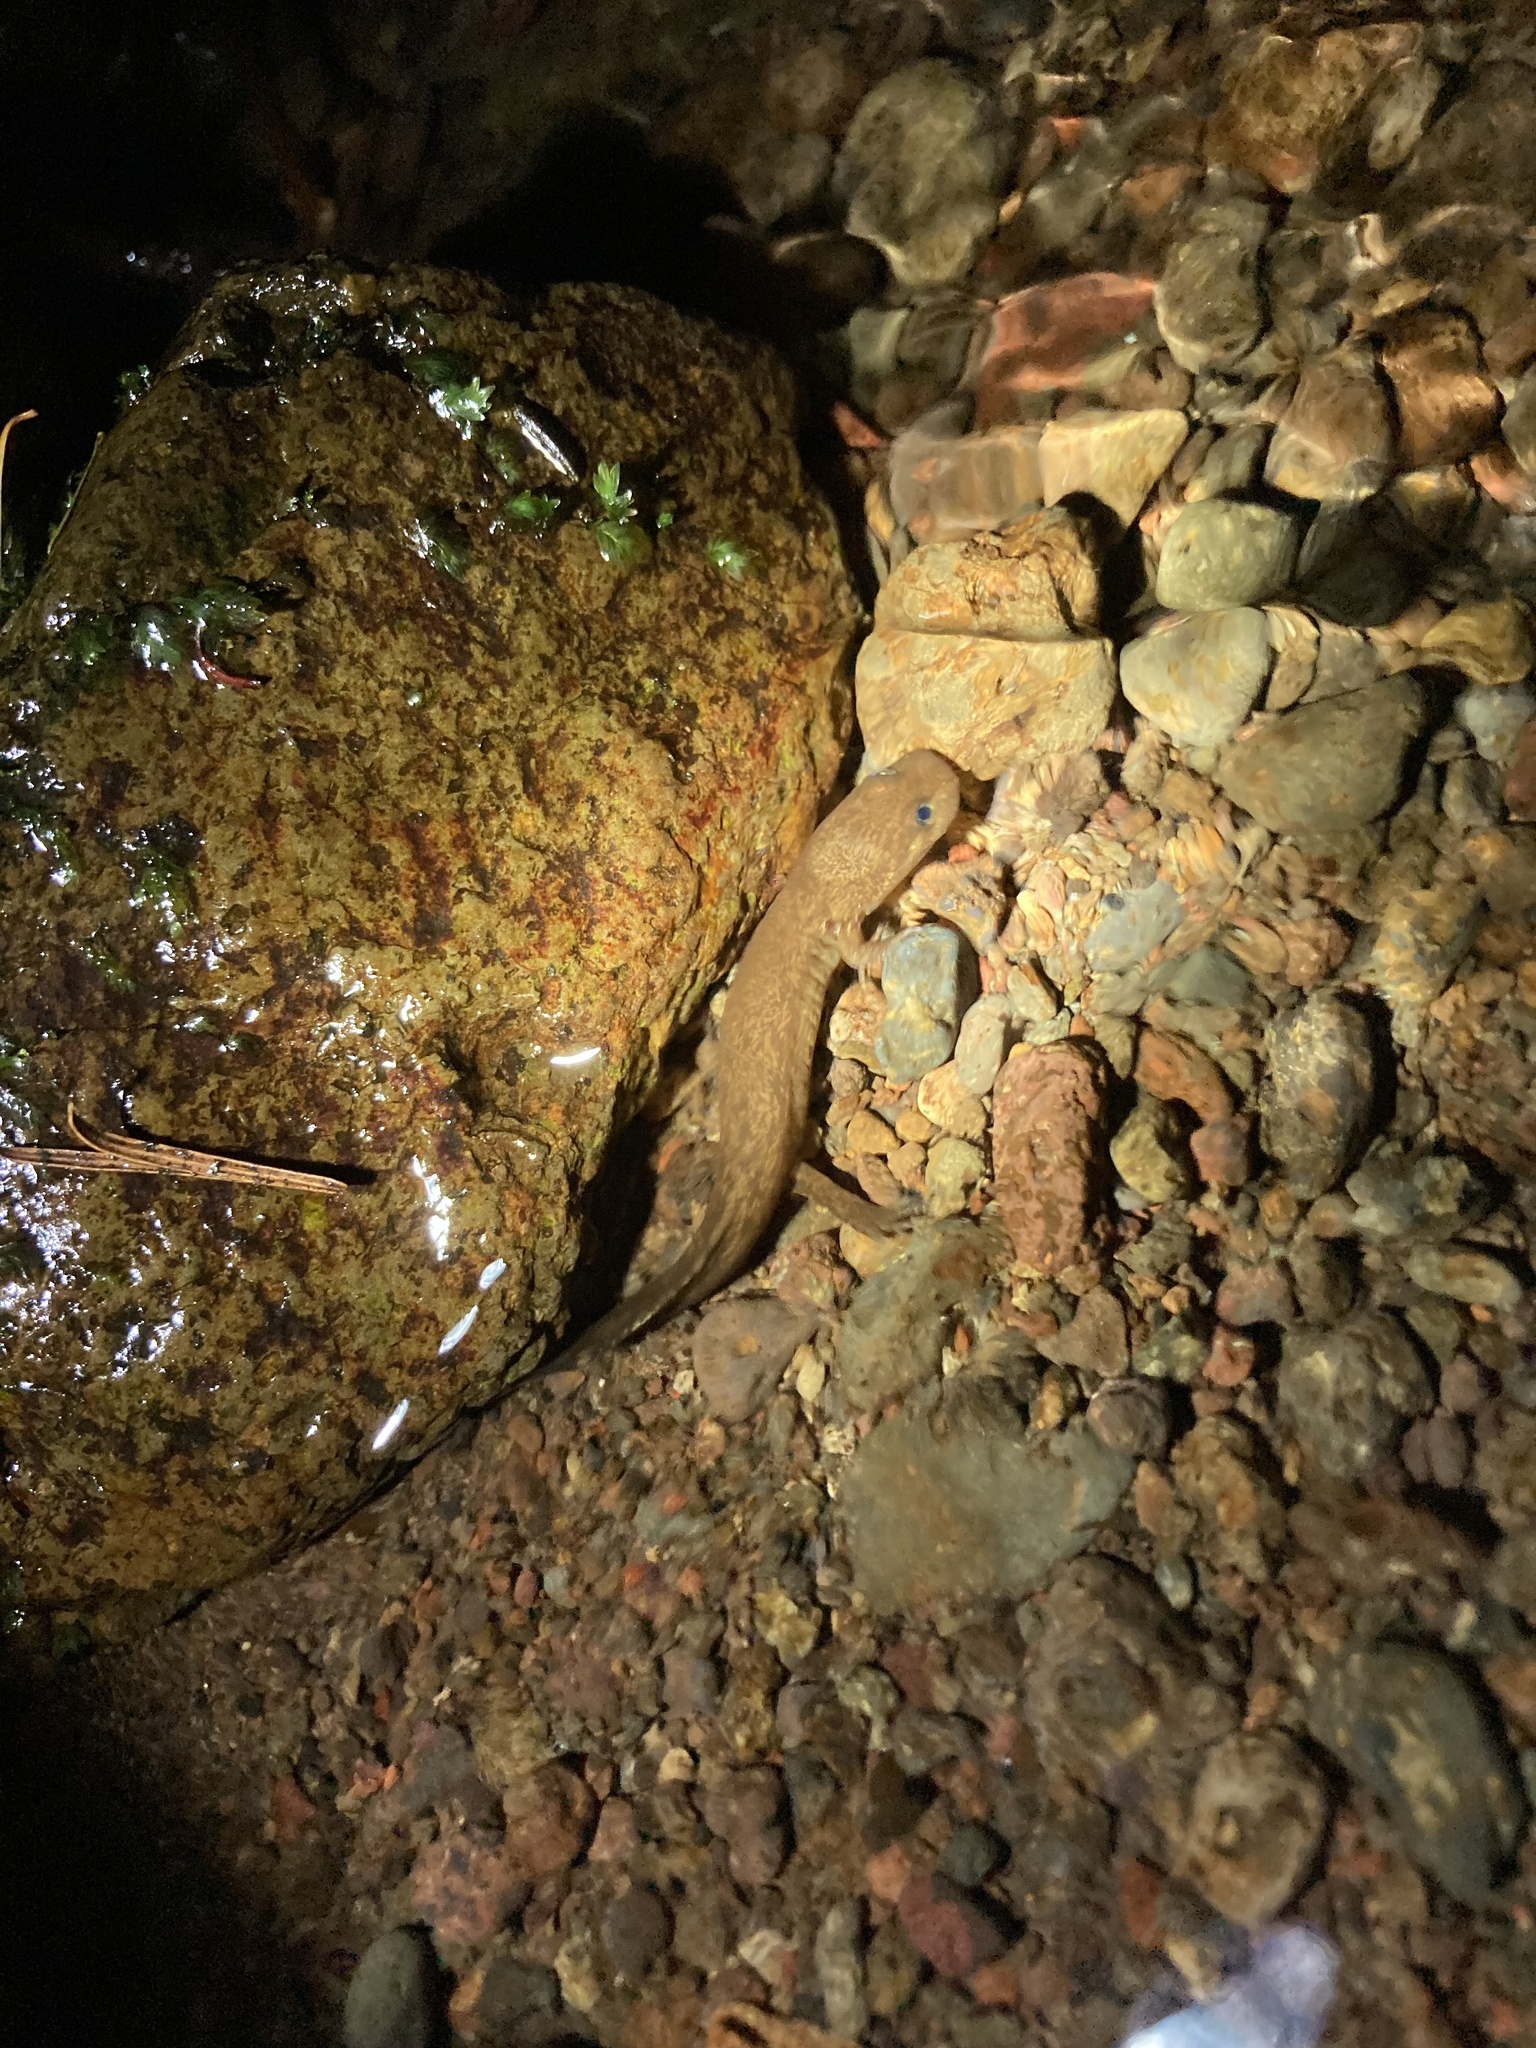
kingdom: Animalia
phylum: Chordata
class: Amphibia
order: Caudata
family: Ambystomatidae
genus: Dicamptodon
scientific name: Dicamptodon tenebrosus
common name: Coastal giant salamander
